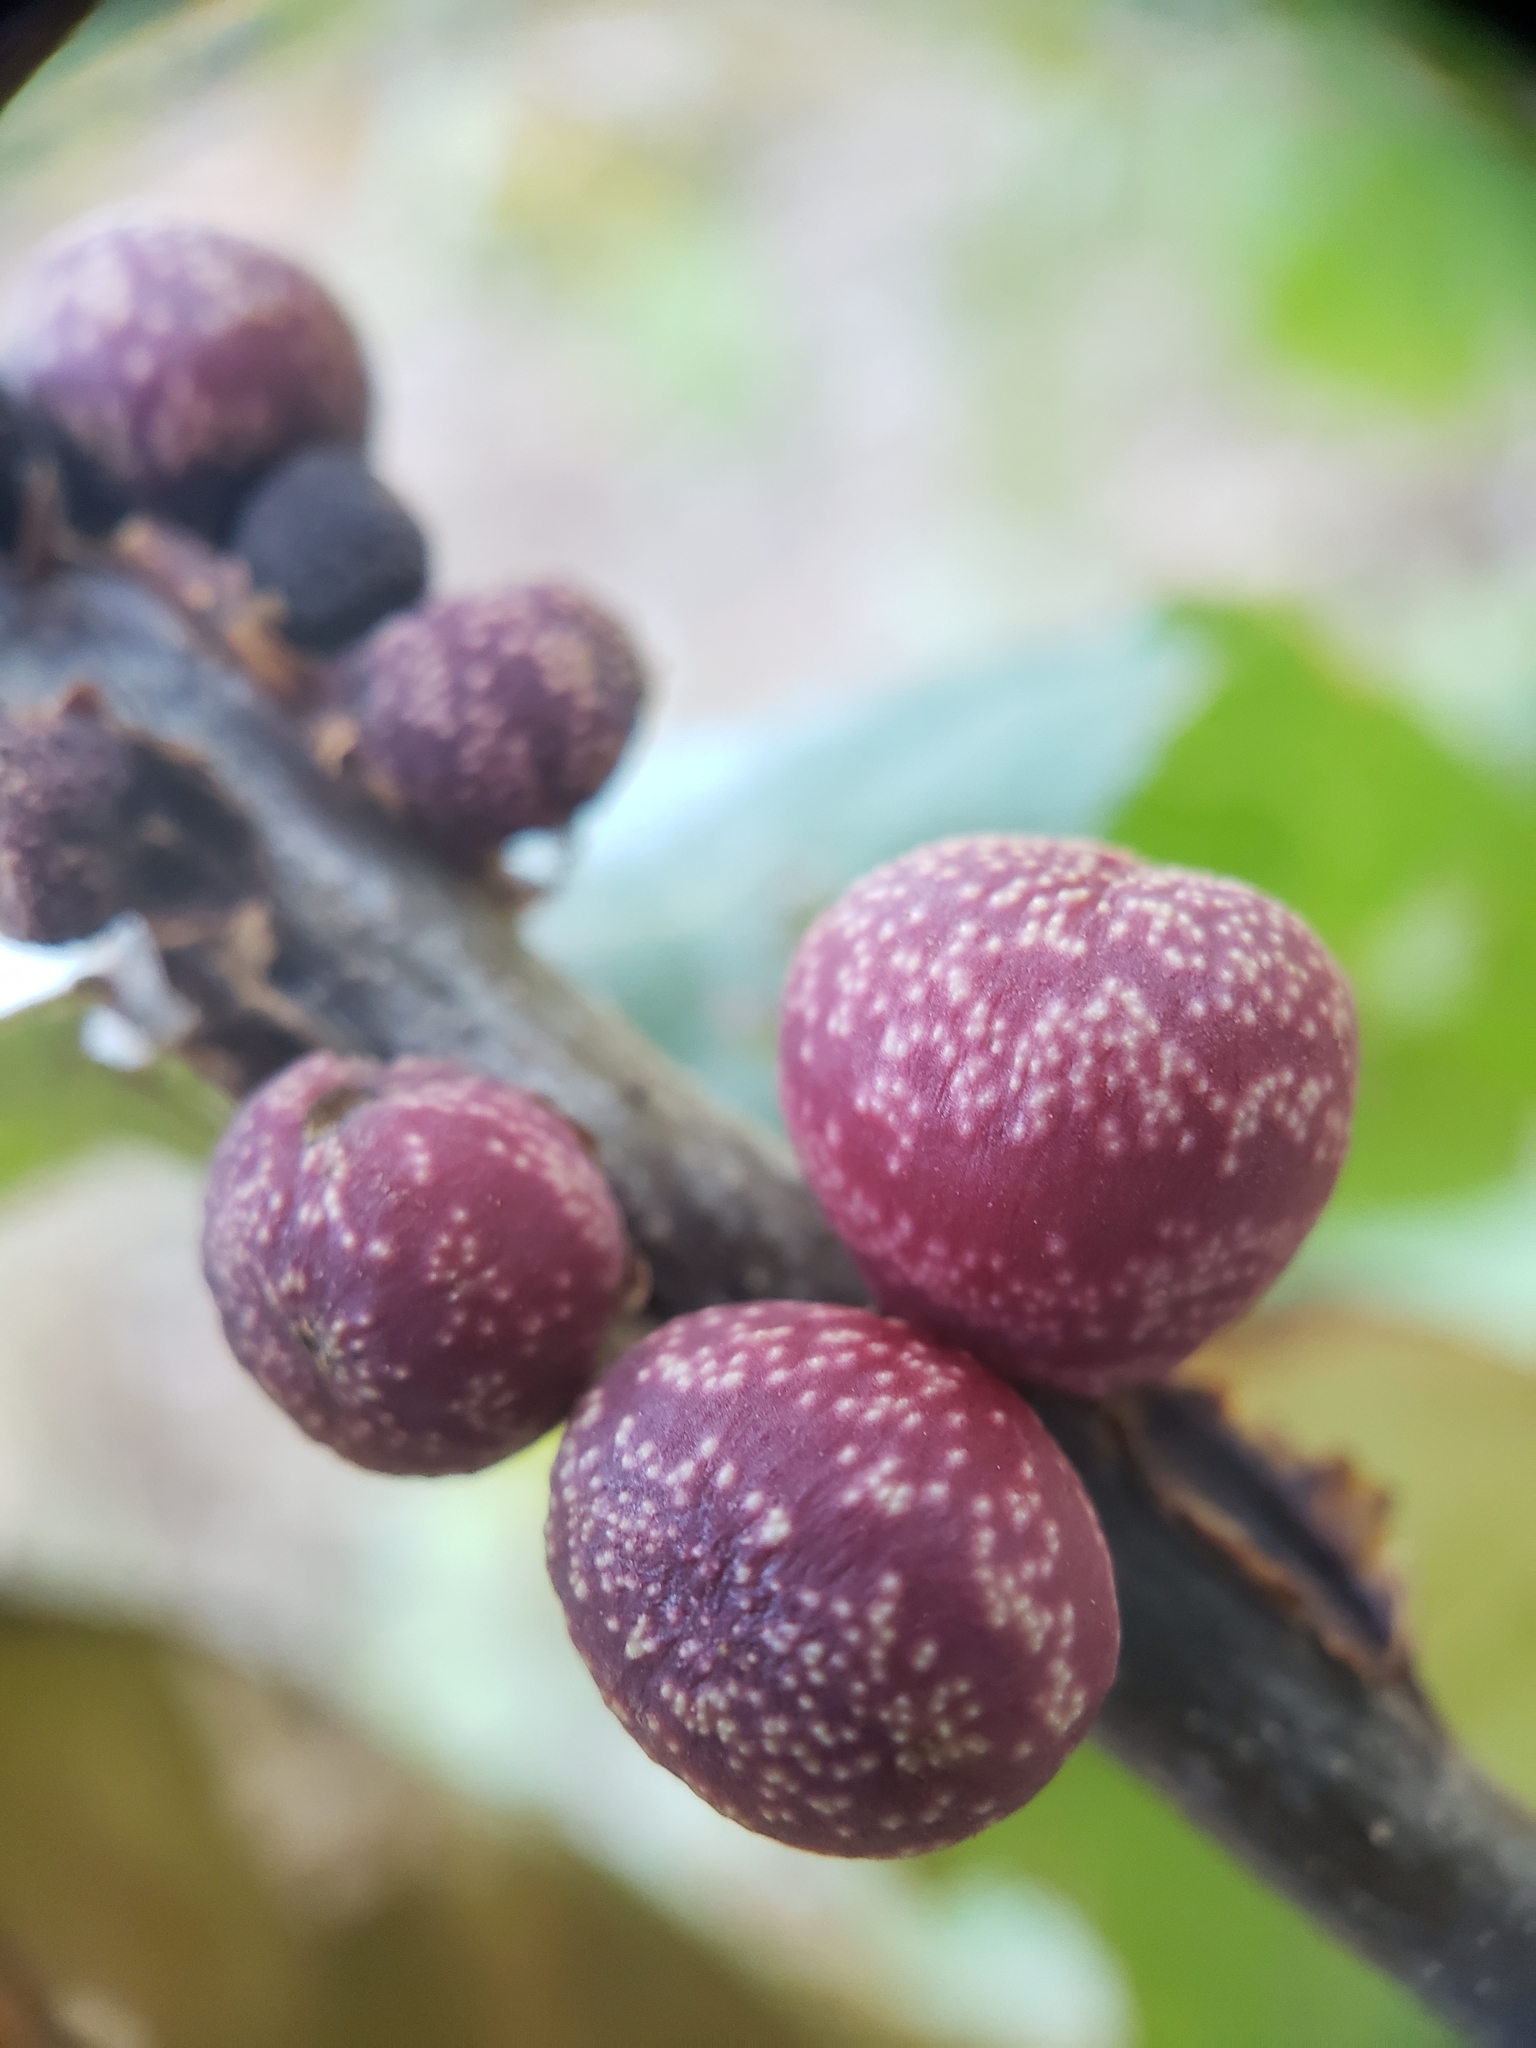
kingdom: Animalia
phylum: Arthropoda
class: Insecta
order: Hymenoptera
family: Cynipidae
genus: Kokkocynips
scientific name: Kokkocynips imbricariae
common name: Banded bullet gall wasp
